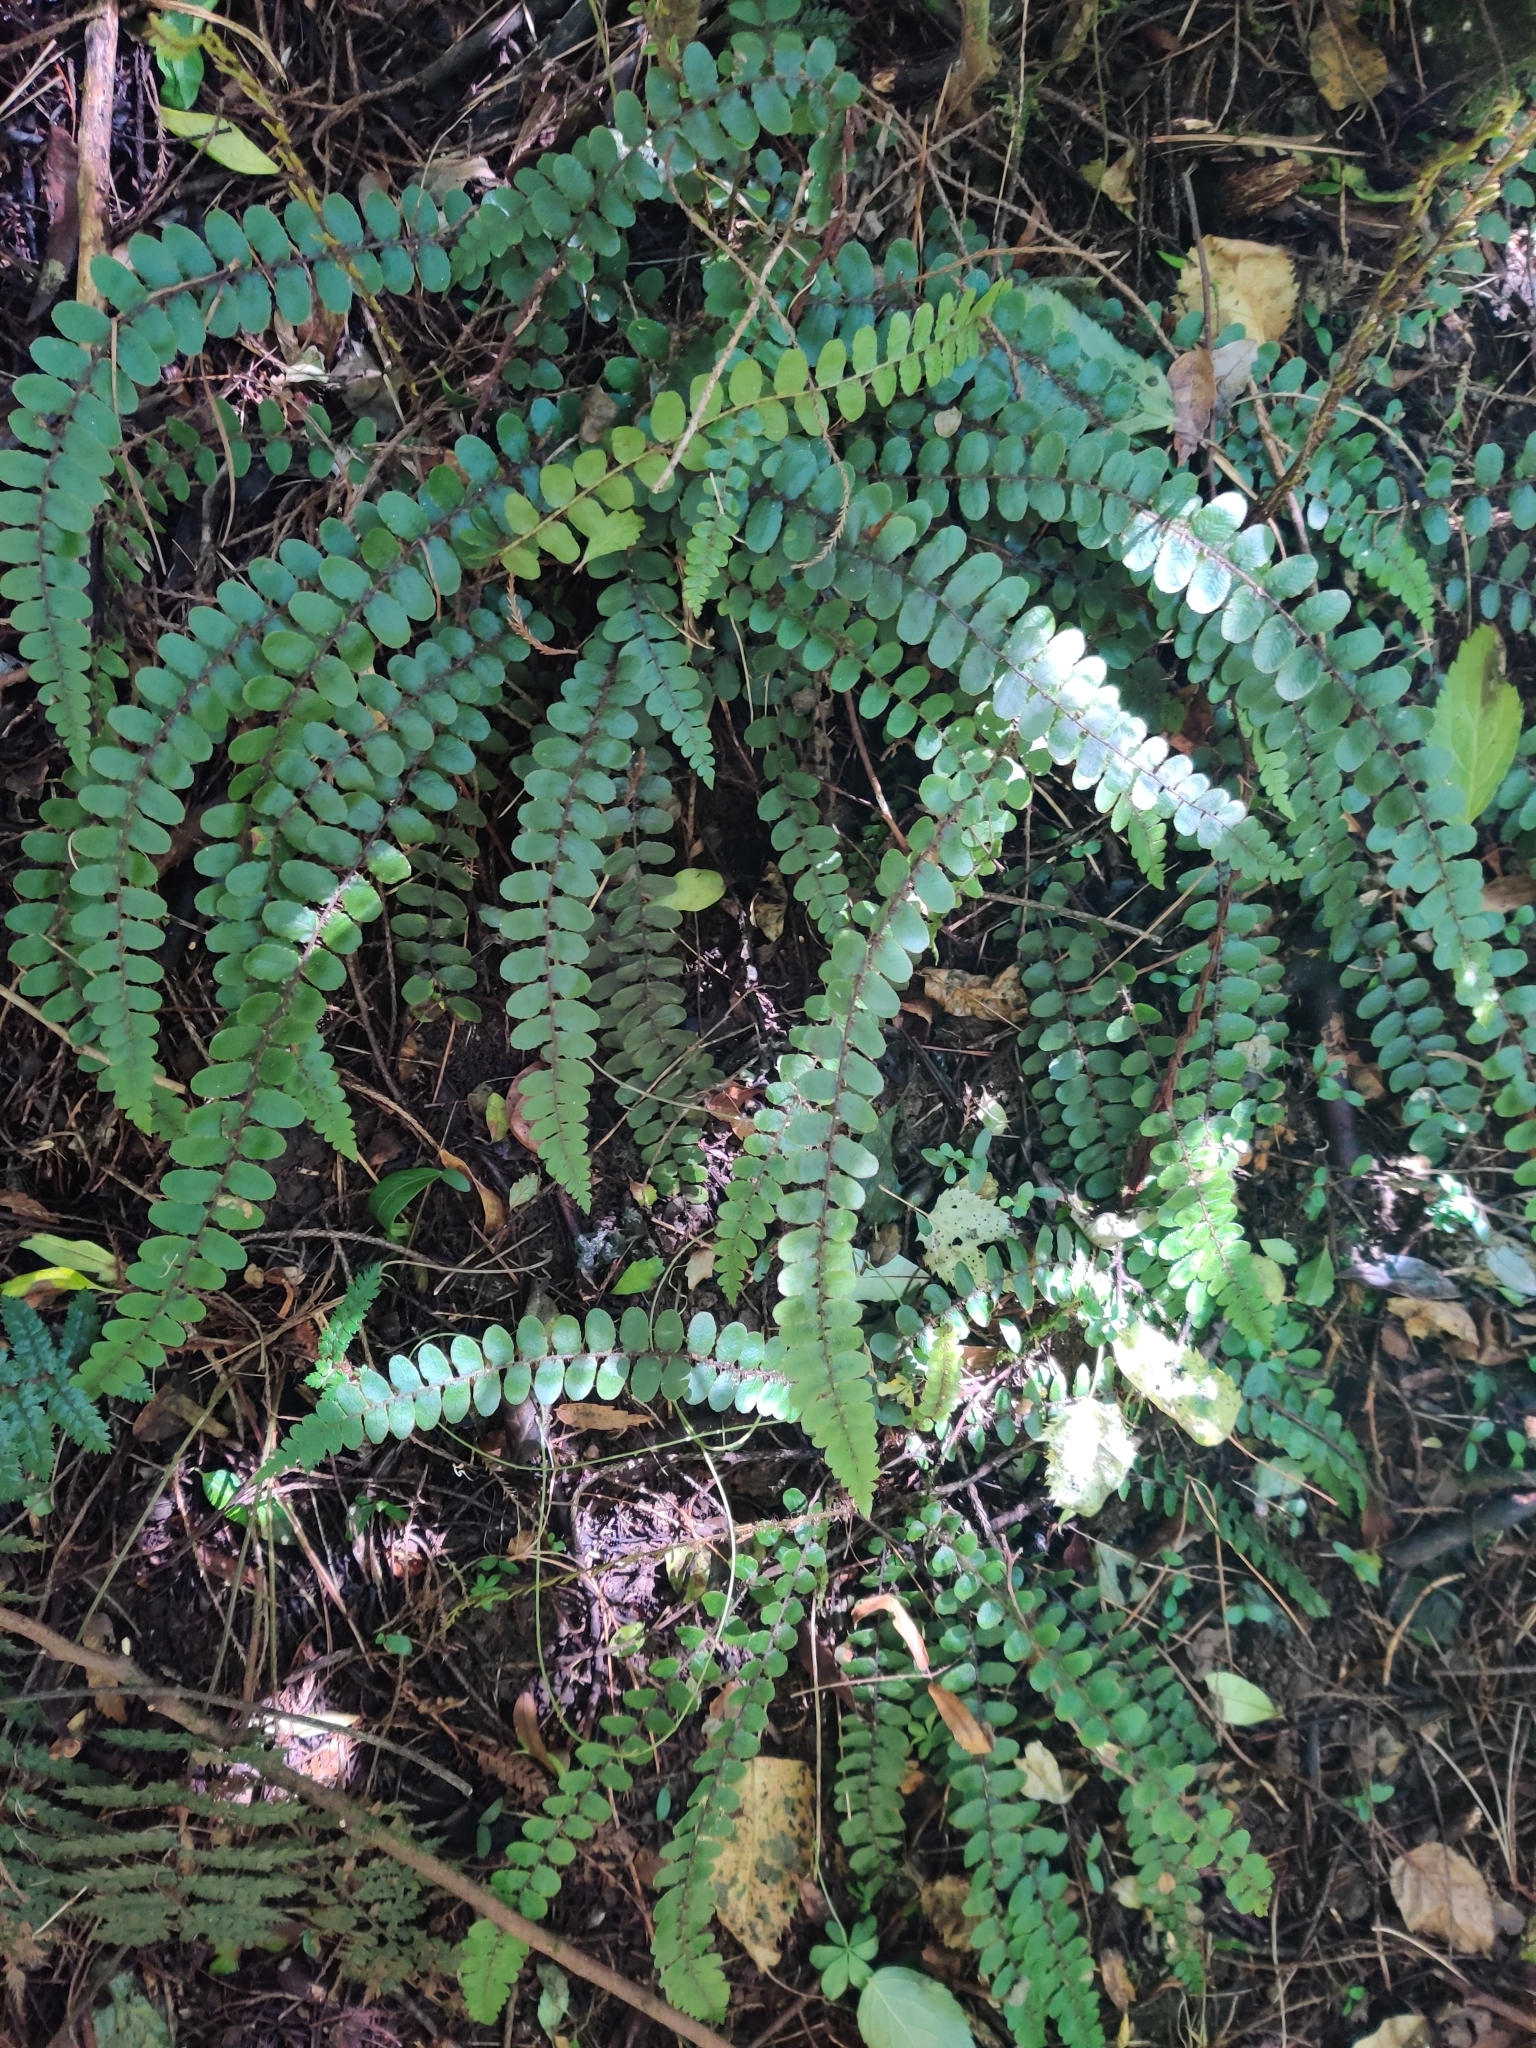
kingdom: Plantae
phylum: Tracheophyta
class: Polypodiopsida
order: Polypodiales
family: Blechnaceae
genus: Cranfillia
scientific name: Cranfillia fluviatilis
